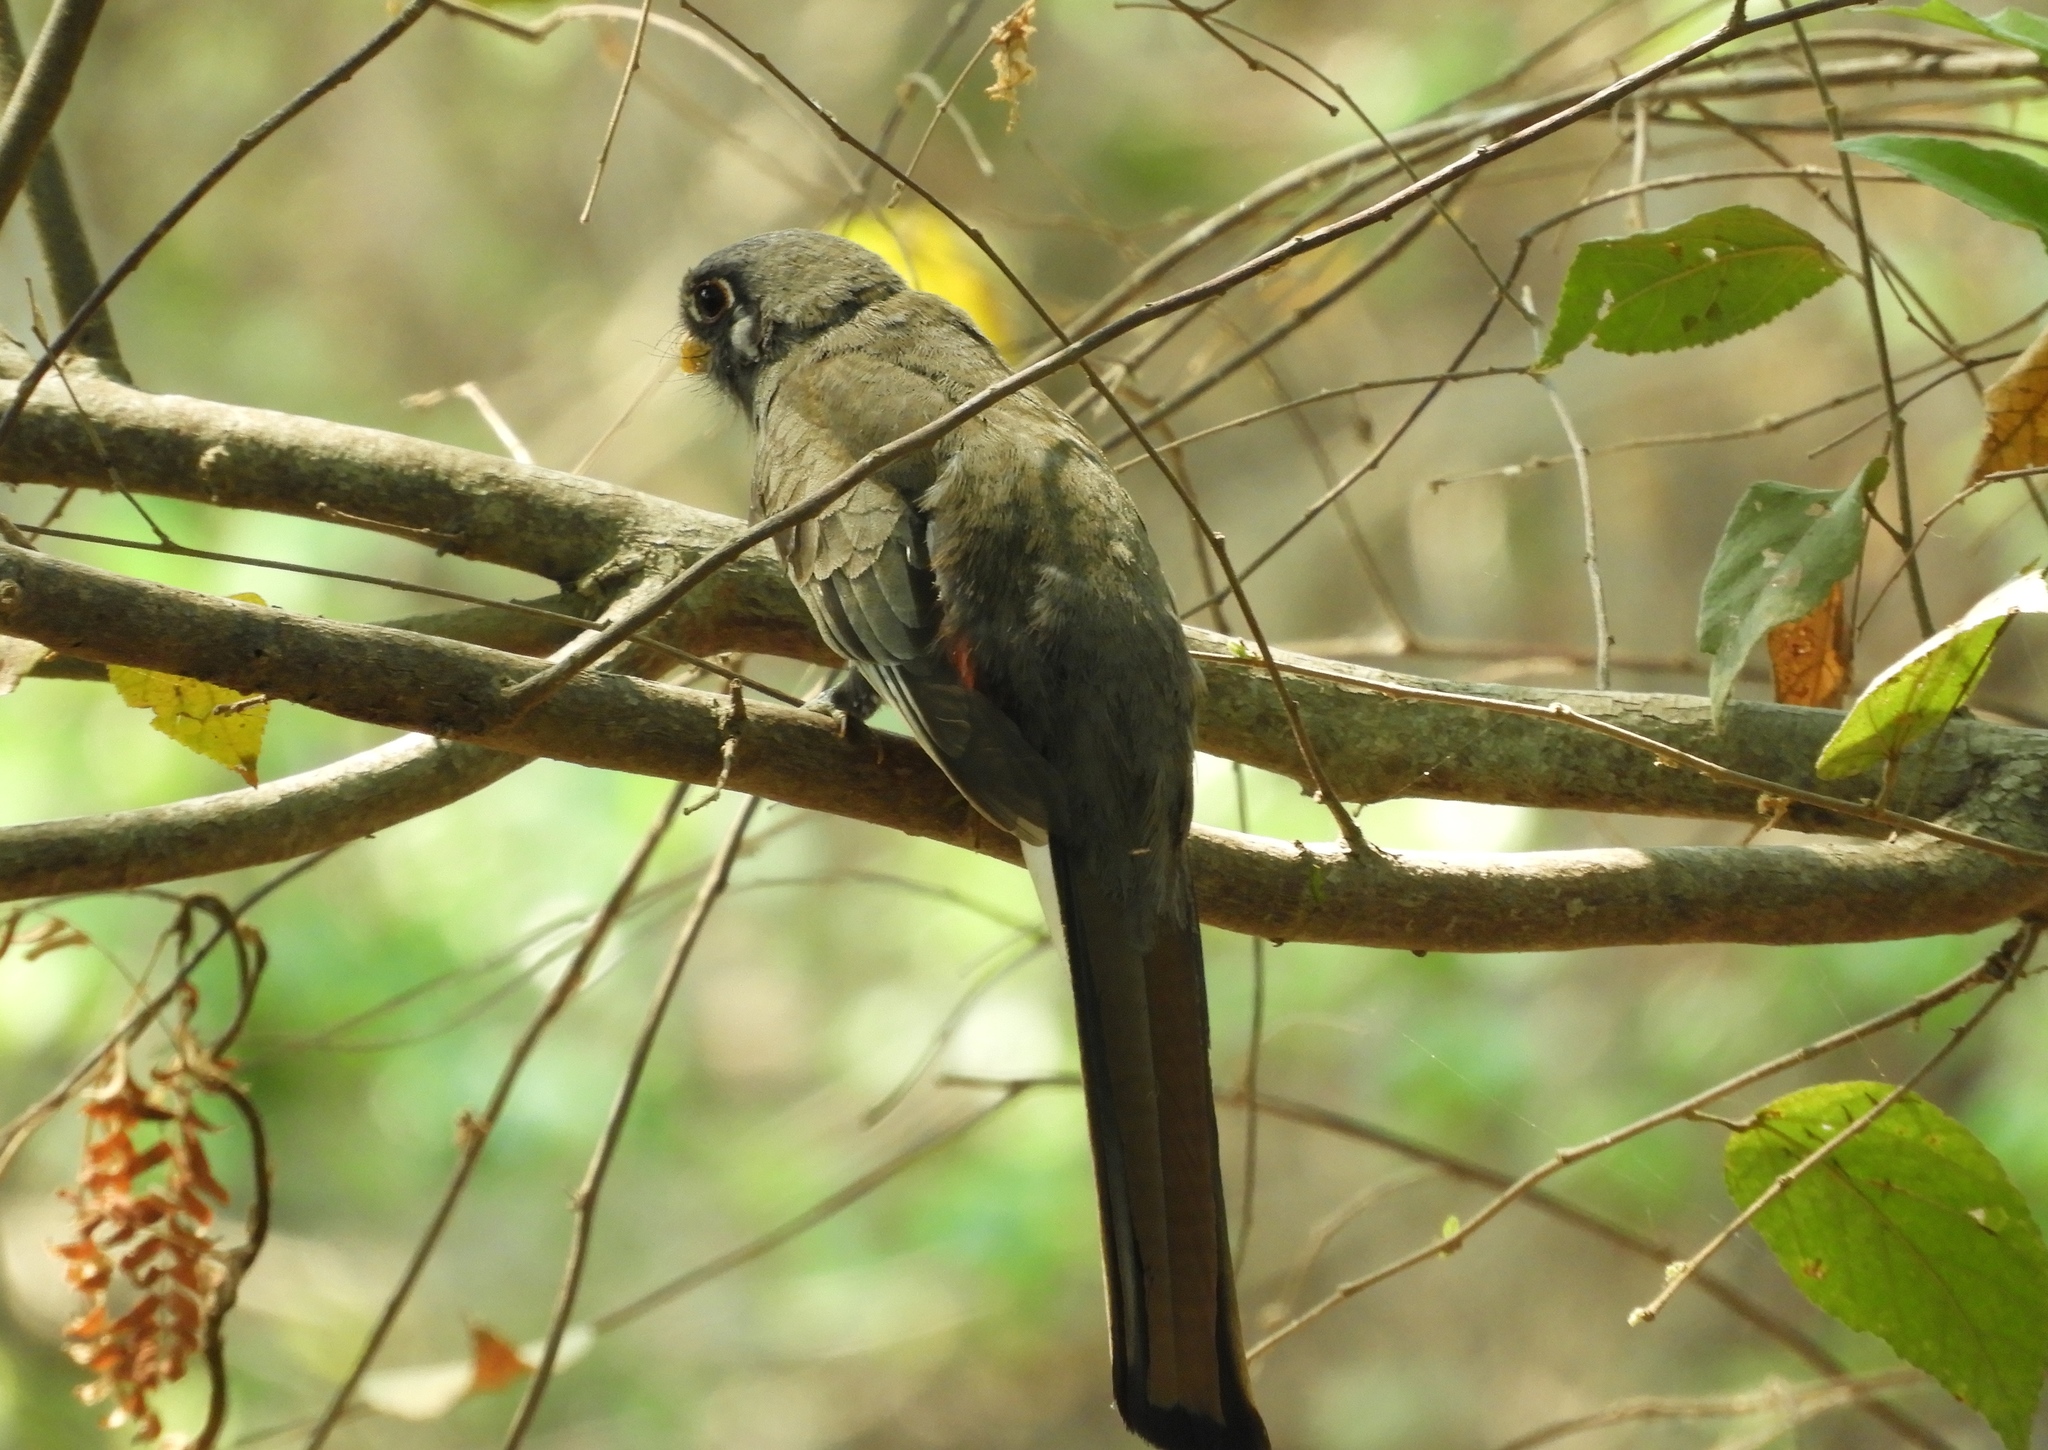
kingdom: Animalia
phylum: Chordata
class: Aves
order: Trogoniformes
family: Trogonidae
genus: Trogon
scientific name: Trogon elegans
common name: Elegant trogon
